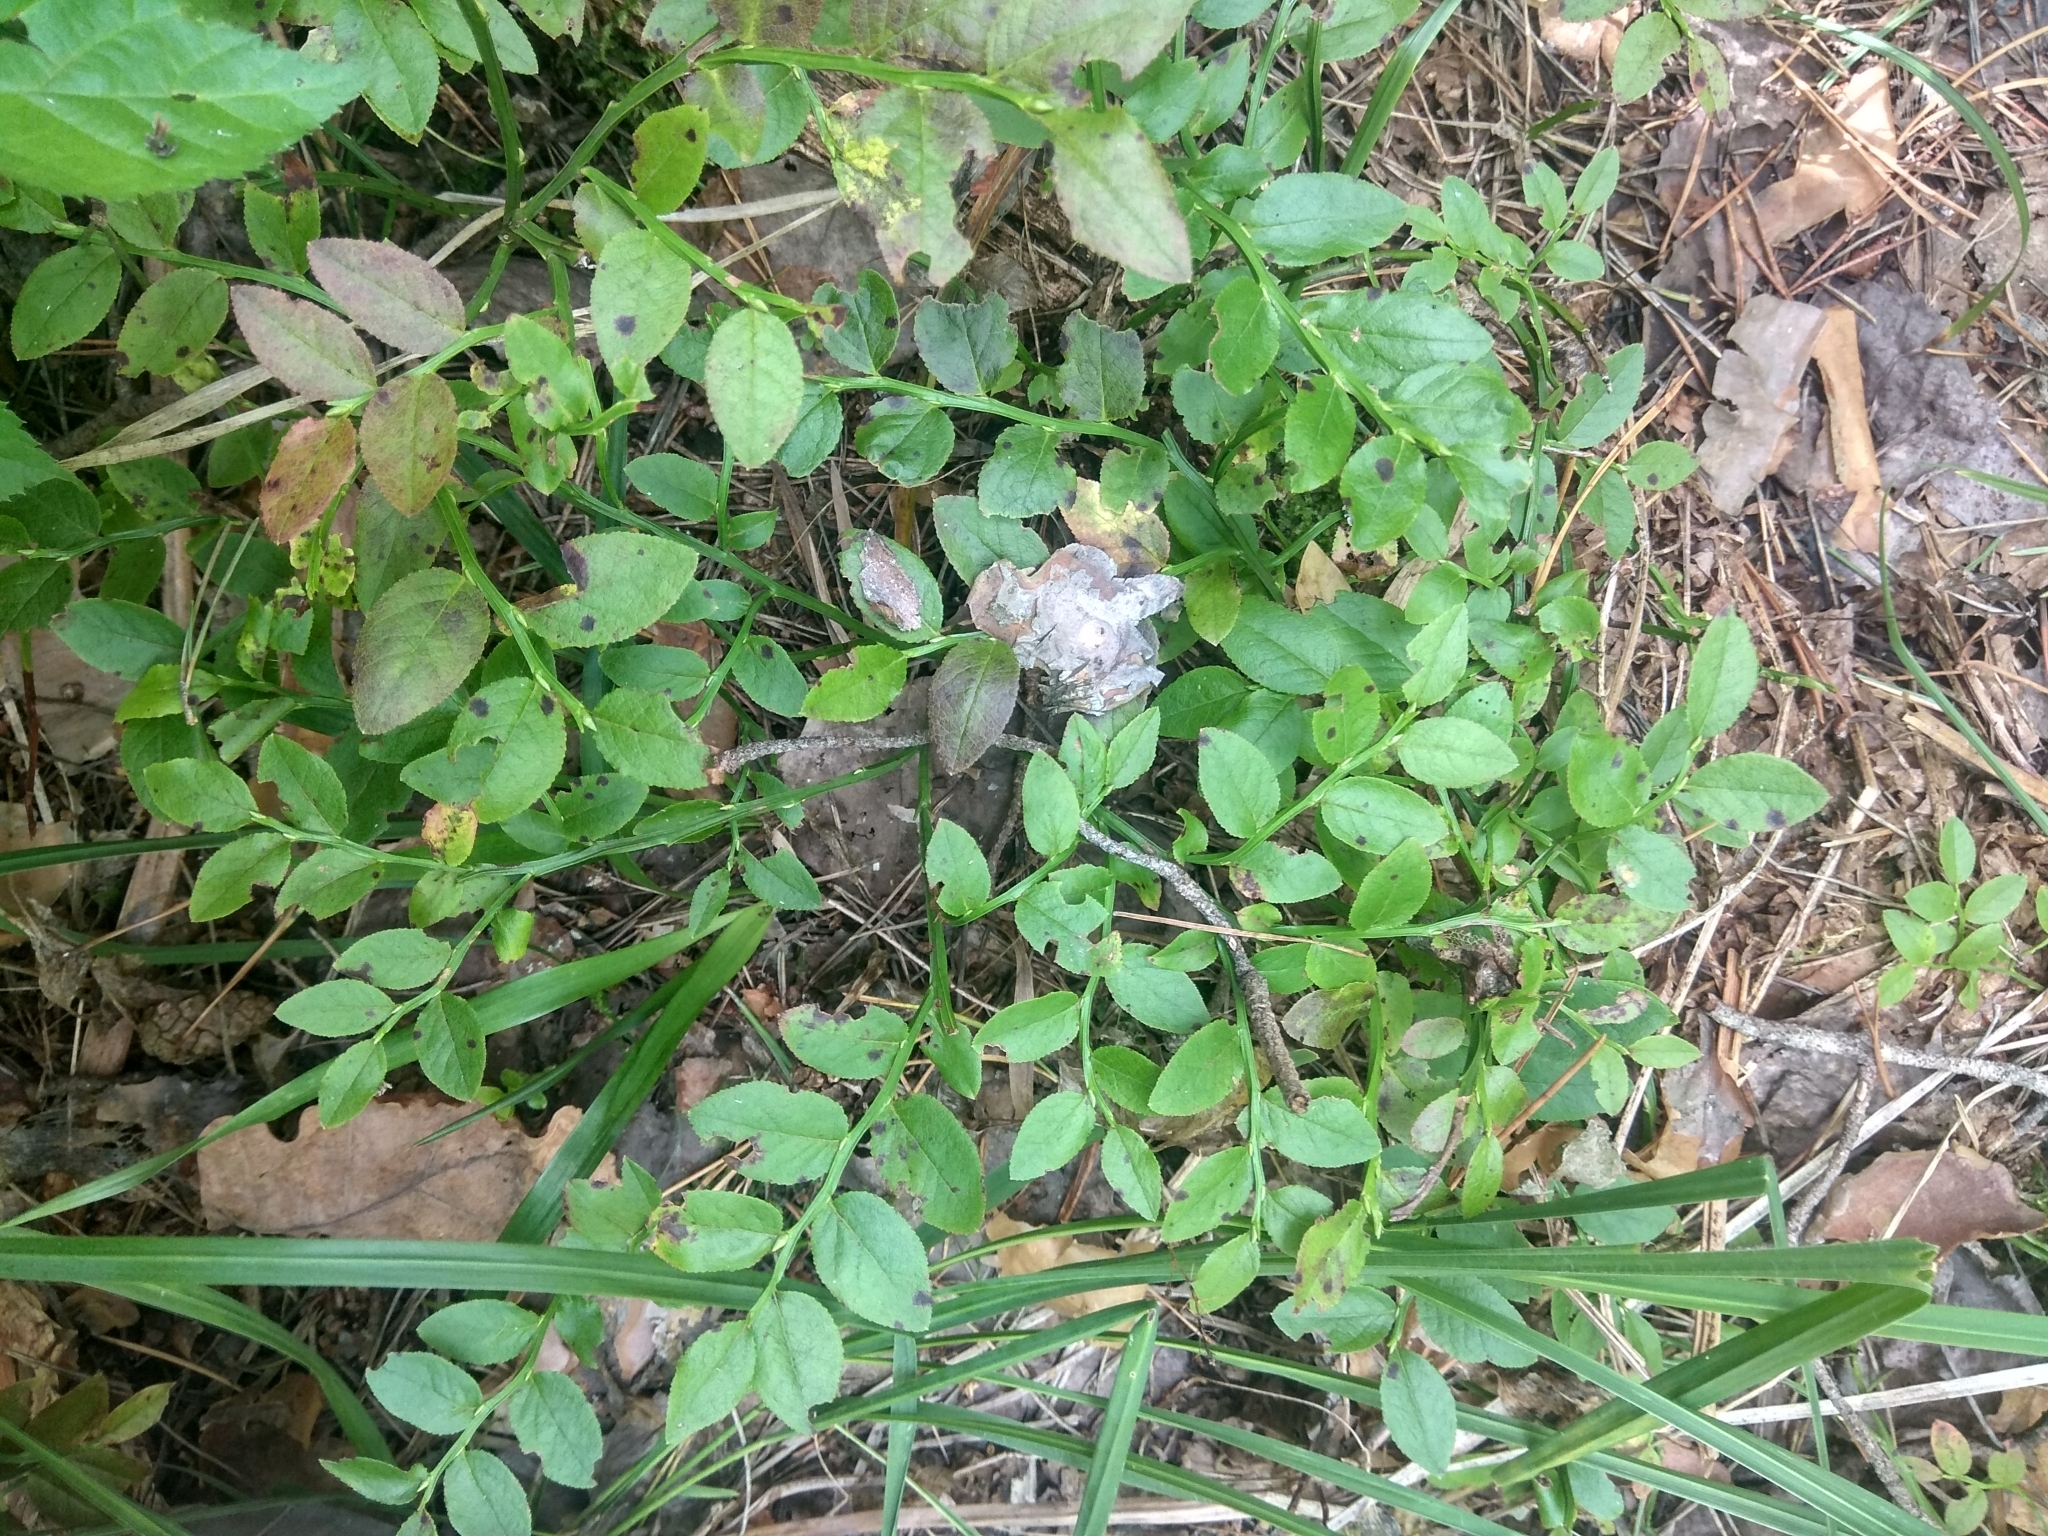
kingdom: Plantae
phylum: Tracheophyta
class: Magnoliopsida
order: Ericales
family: Ericaceae
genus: Vaccinium
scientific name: Vaccinium myrtillus
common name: Bilberry
